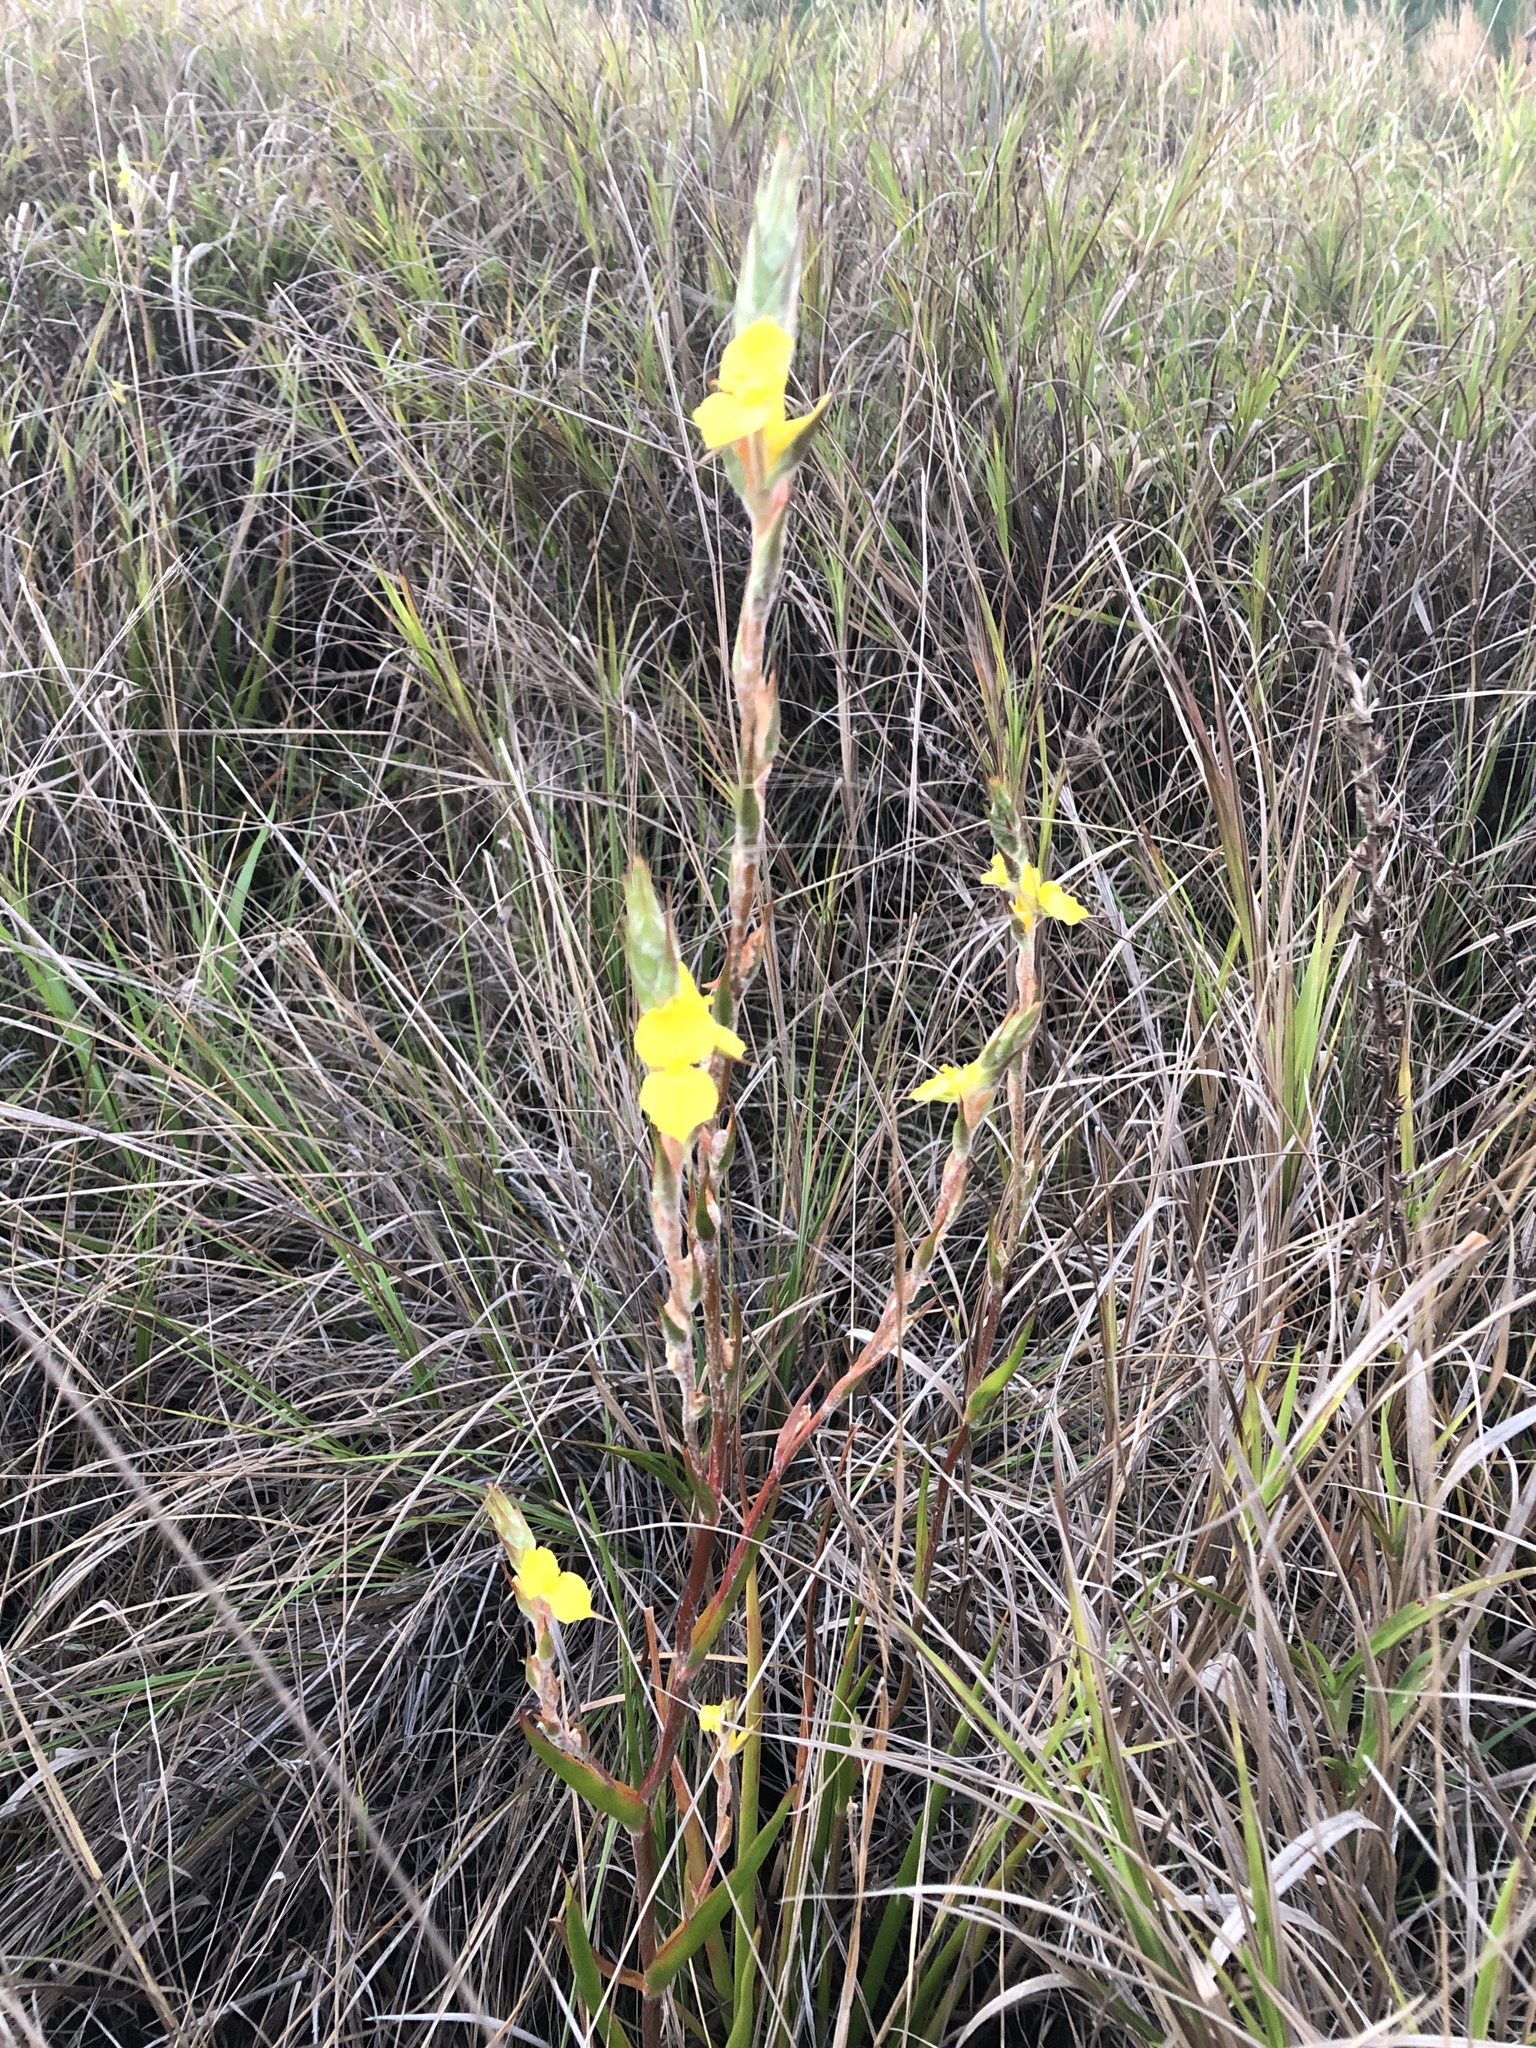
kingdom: Plantae
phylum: Tracheophyta
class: Liliopsida
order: Commelinales
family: Philydraceae
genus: Philydrum
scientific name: Philydrum lanuginosum
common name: Woolly frog's mouth
